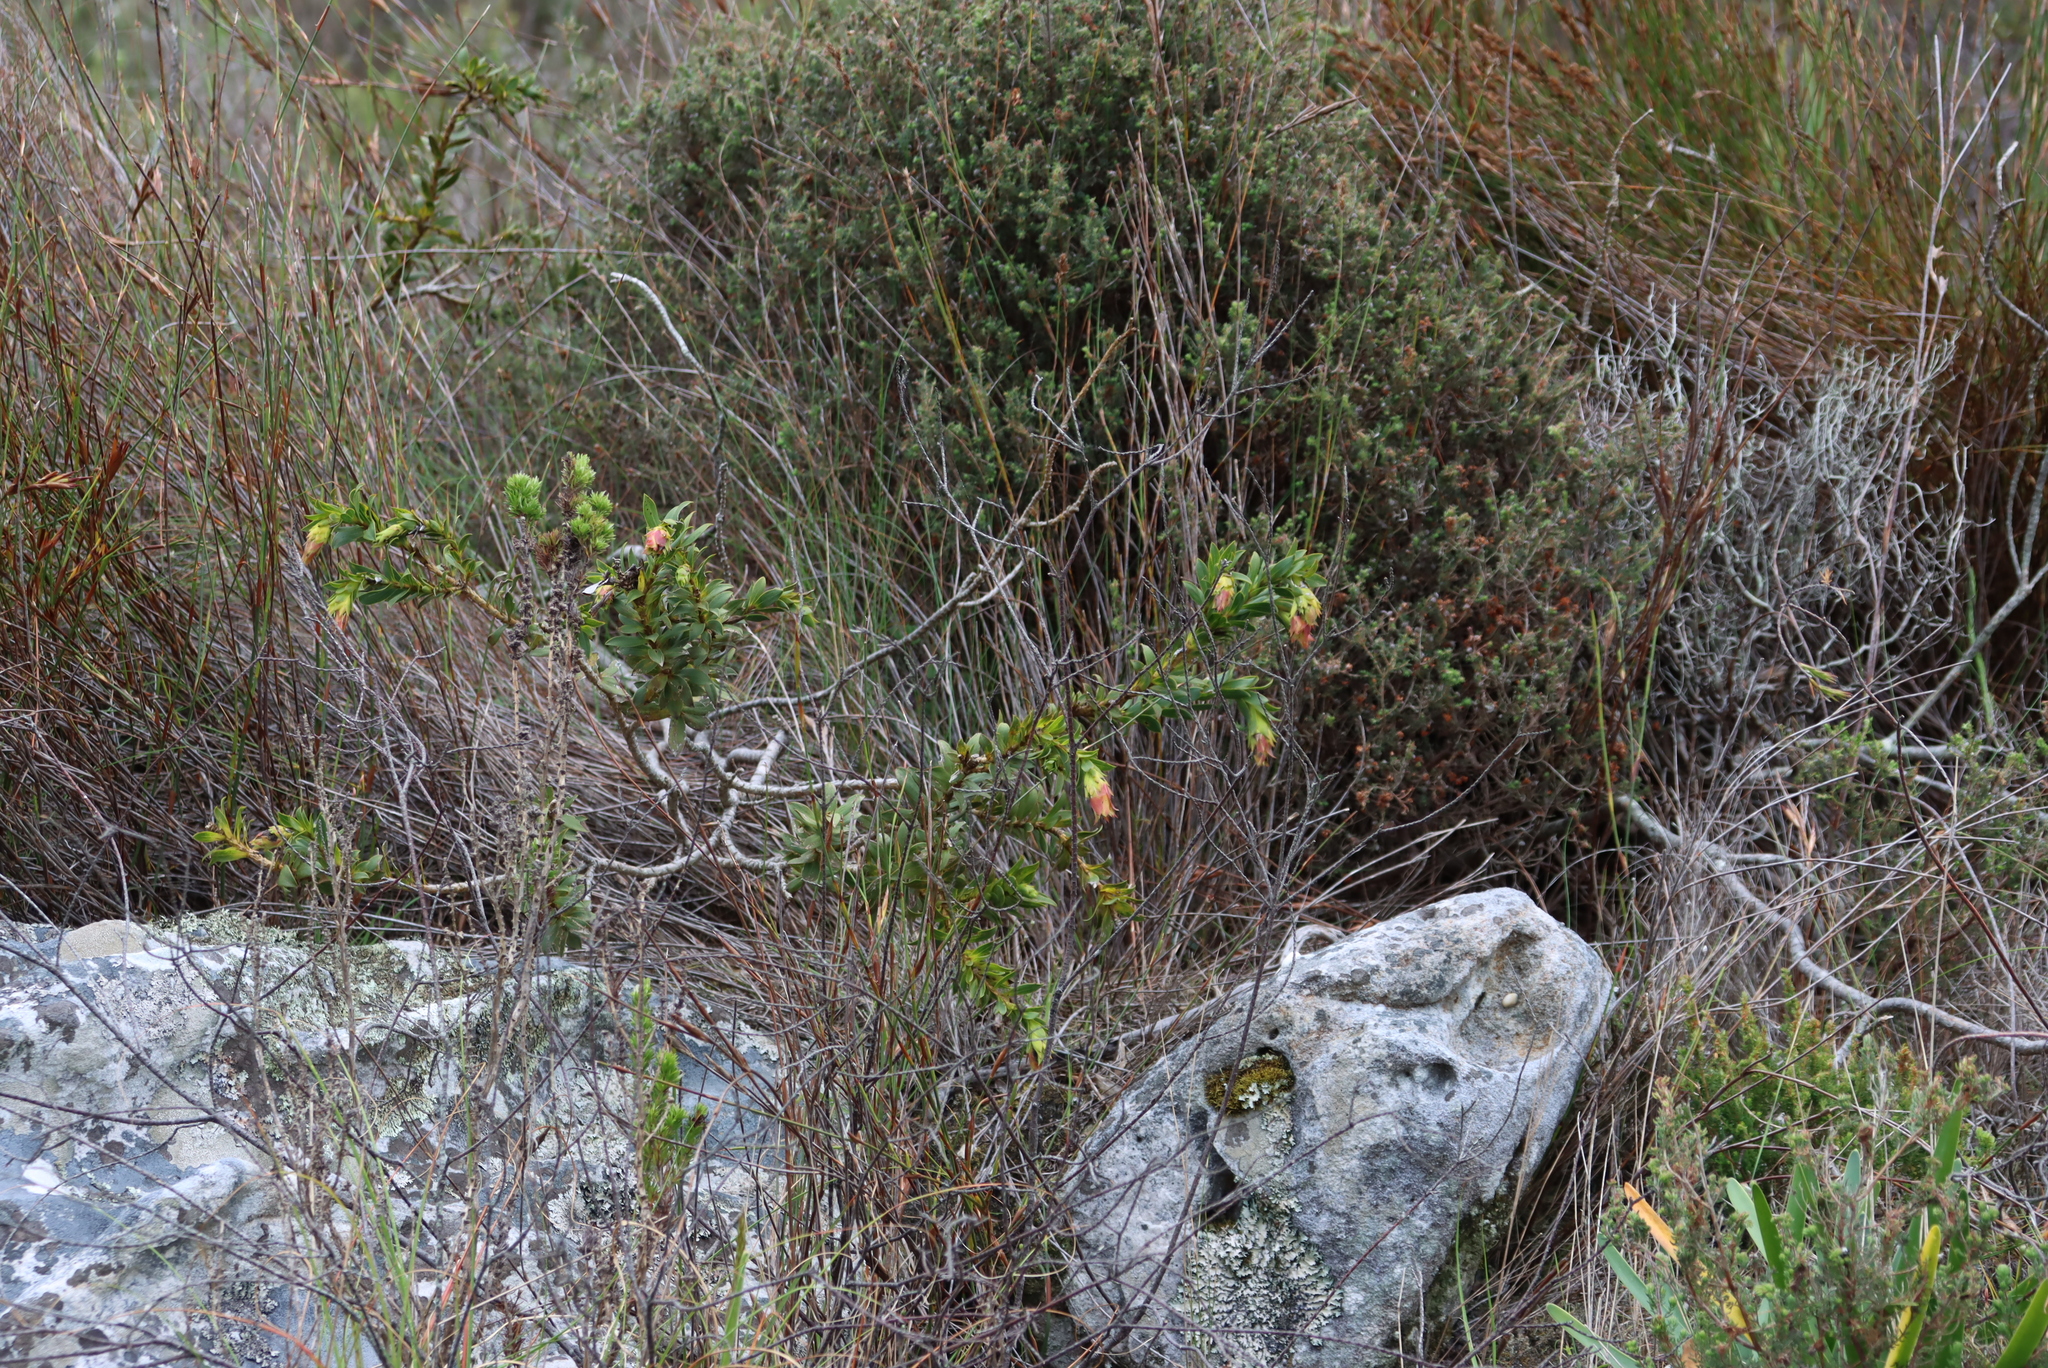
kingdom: Plantae
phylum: Tracheophyta
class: Magnoliopsida
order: Fabales
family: Fabaceae
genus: Liparia
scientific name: Liparia splendens
